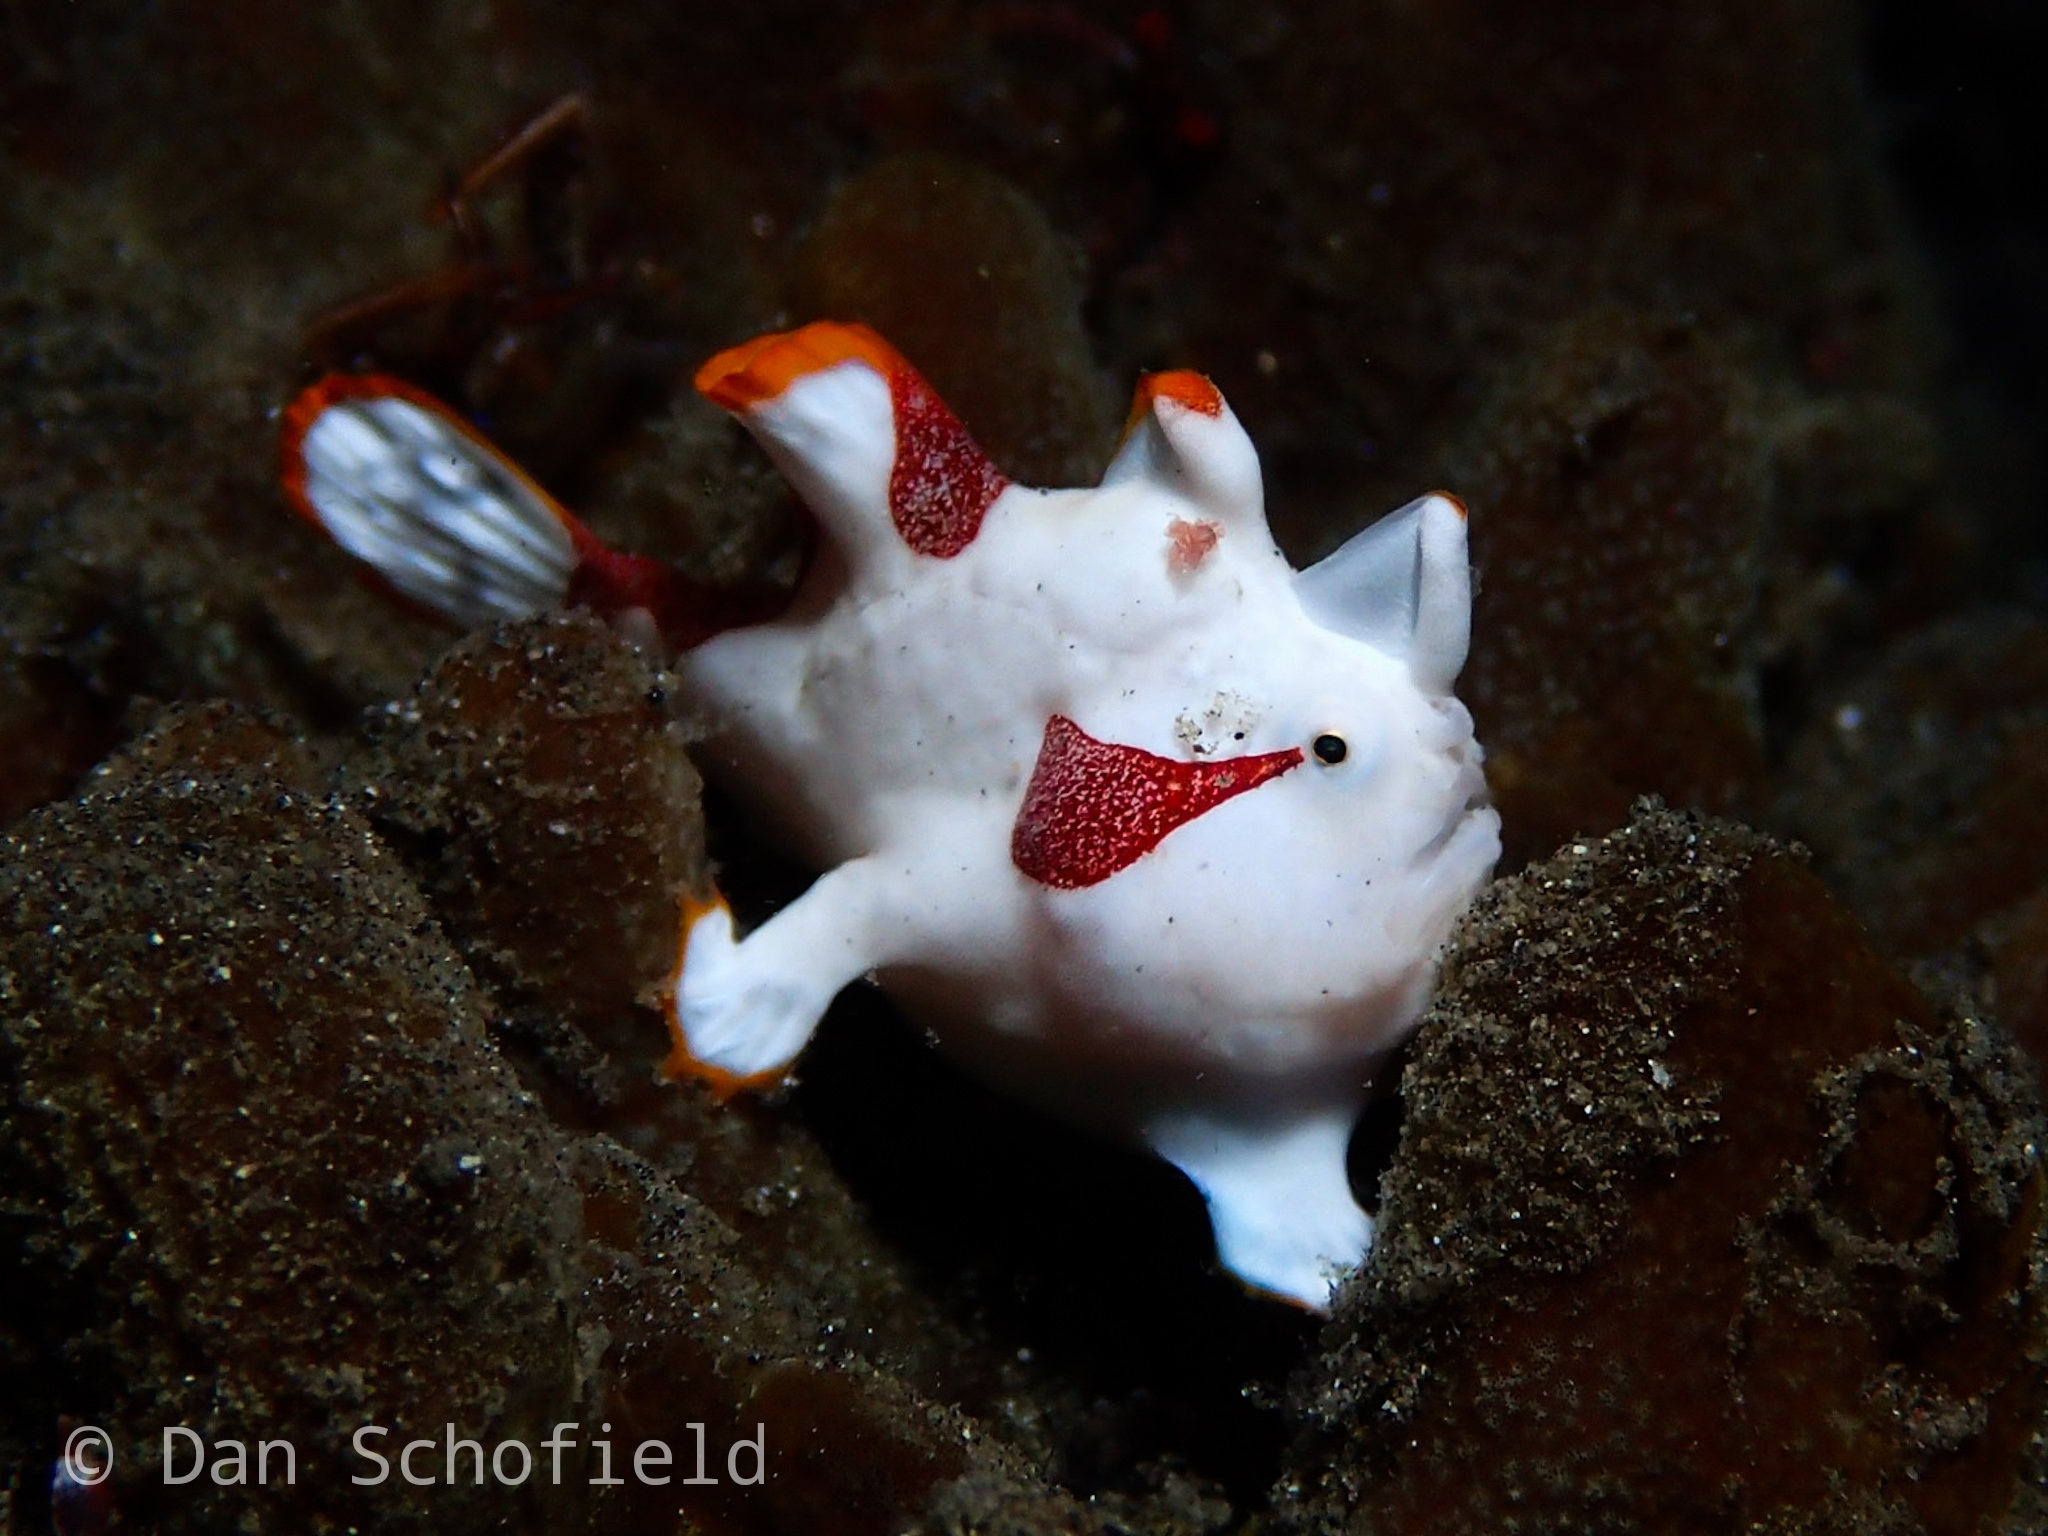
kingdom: Animalia
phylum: Chordata
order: Lophiiformes
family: Antennariidae
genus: Antennarius
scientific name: Antennarius maculatus
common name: Warty frogfish
